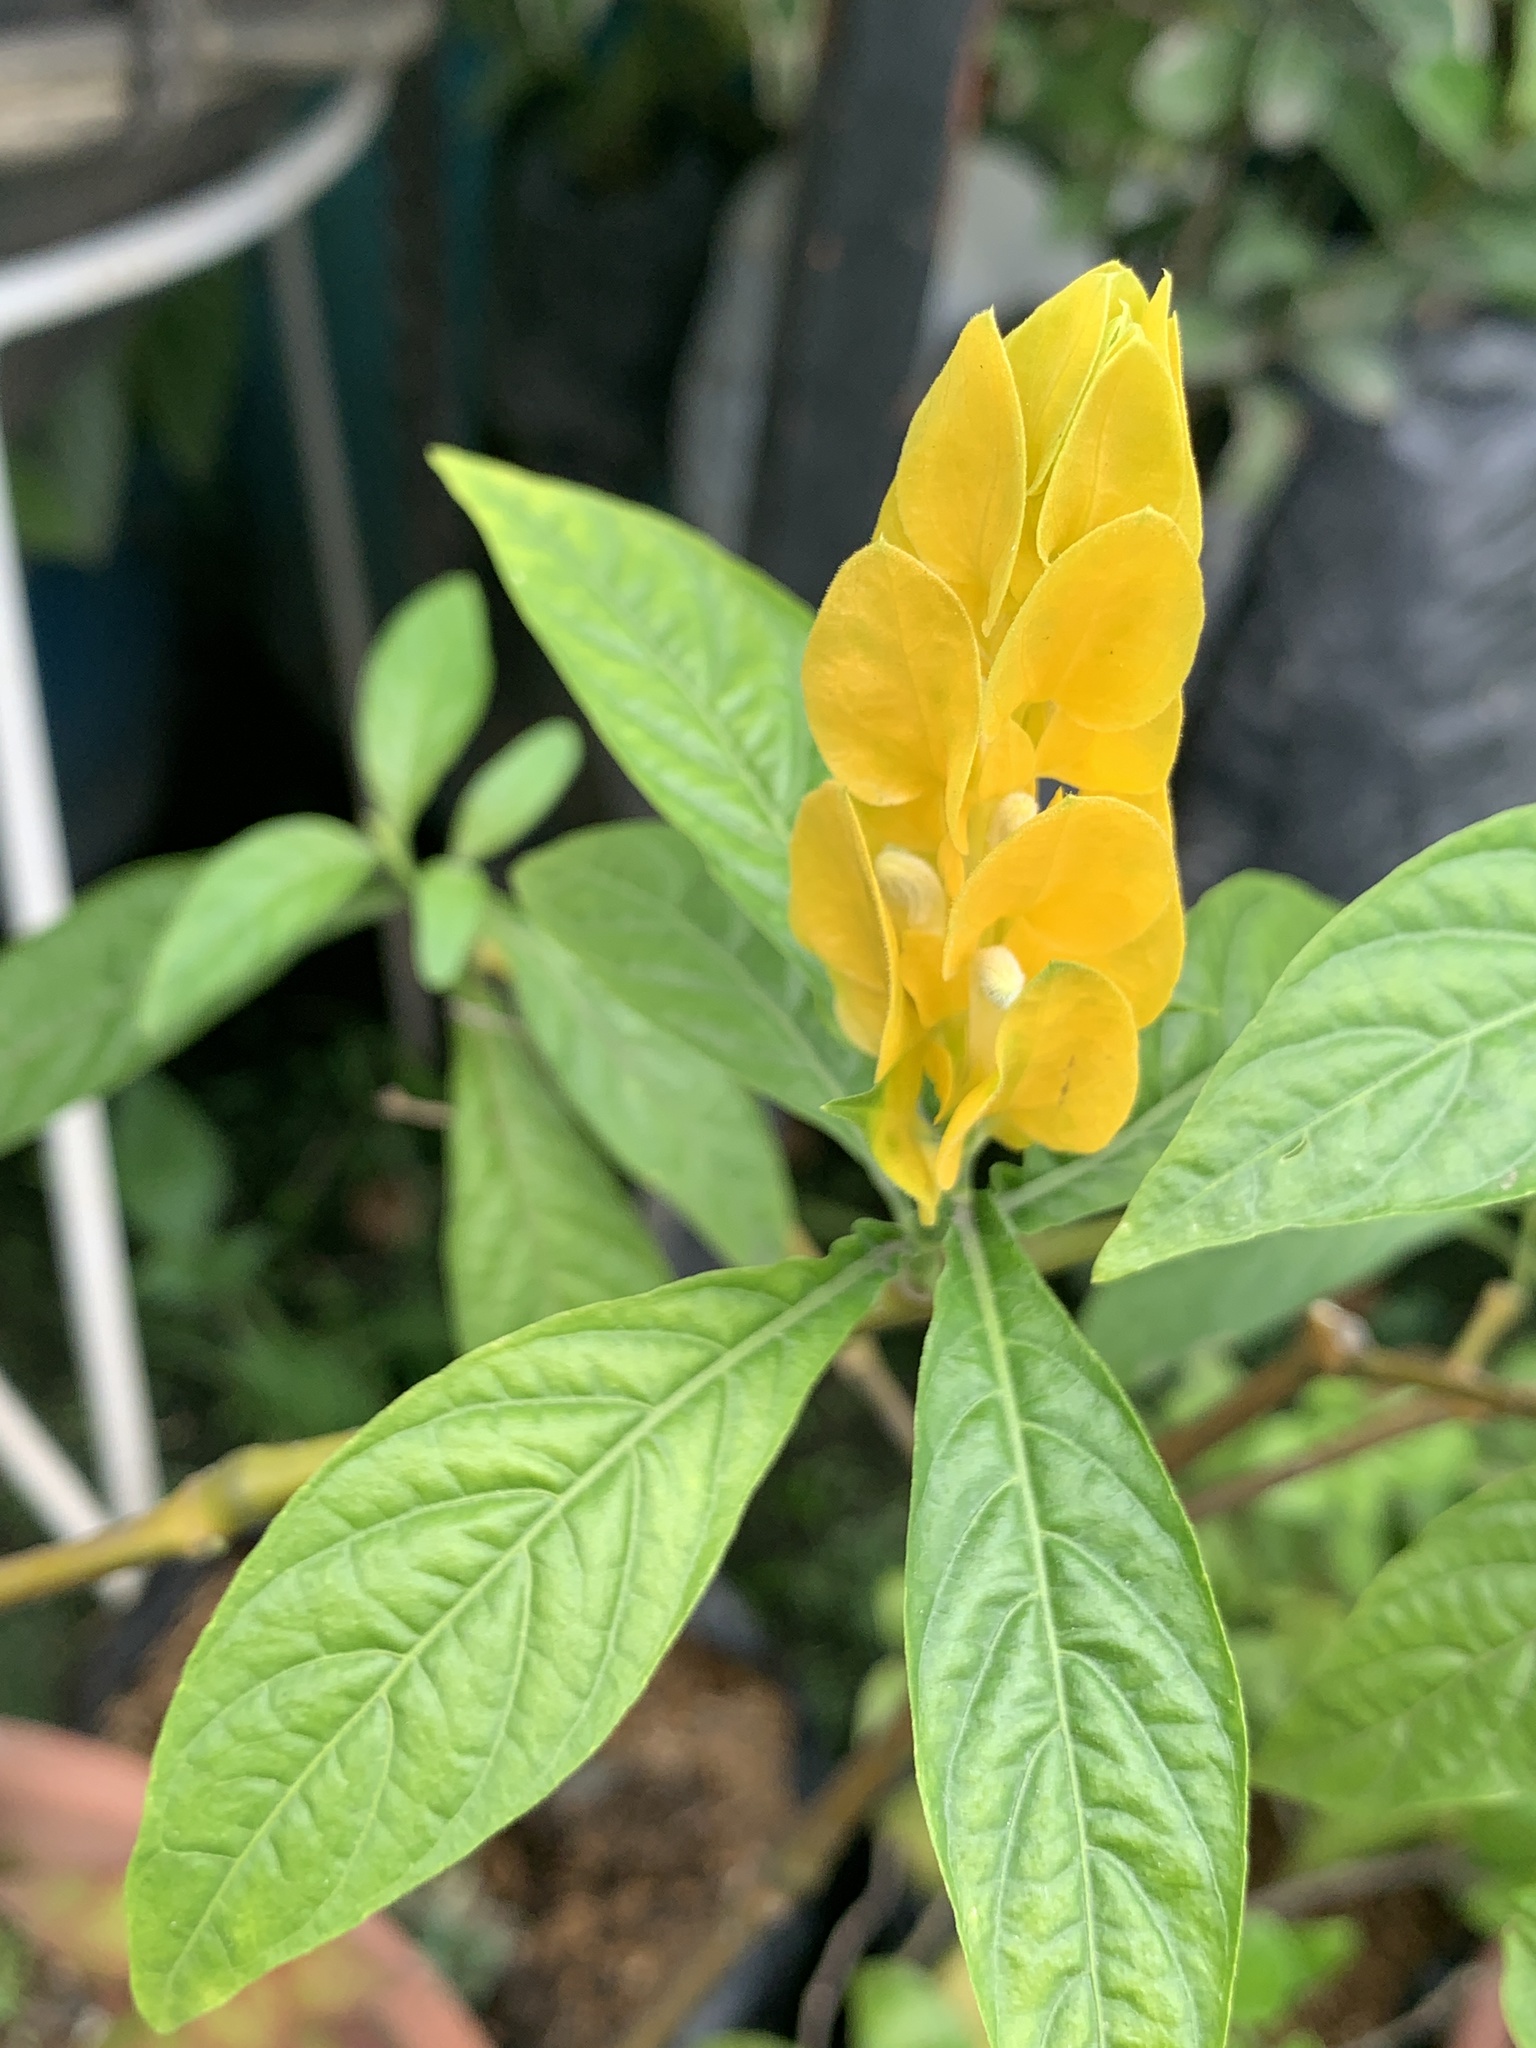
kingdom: Plantae
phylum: Tracheophyta
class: Magnoliopsida
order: Lamiales
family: Acanthaceae
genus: Pachystachys
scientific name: Pachystachys lutea
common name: Golden shrimp-plant
